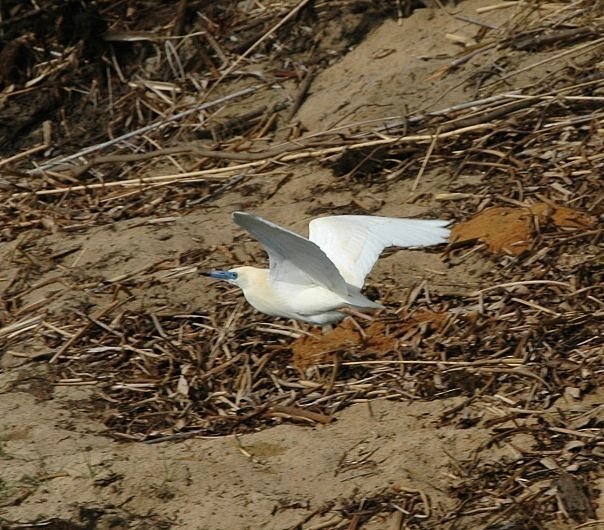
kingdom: Animalia
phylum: Chordata
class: Aves
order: Pelecaniformes
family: Ardeidae
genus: Ardeola
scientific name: Ardeola idae
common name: Malagasy pond heron
